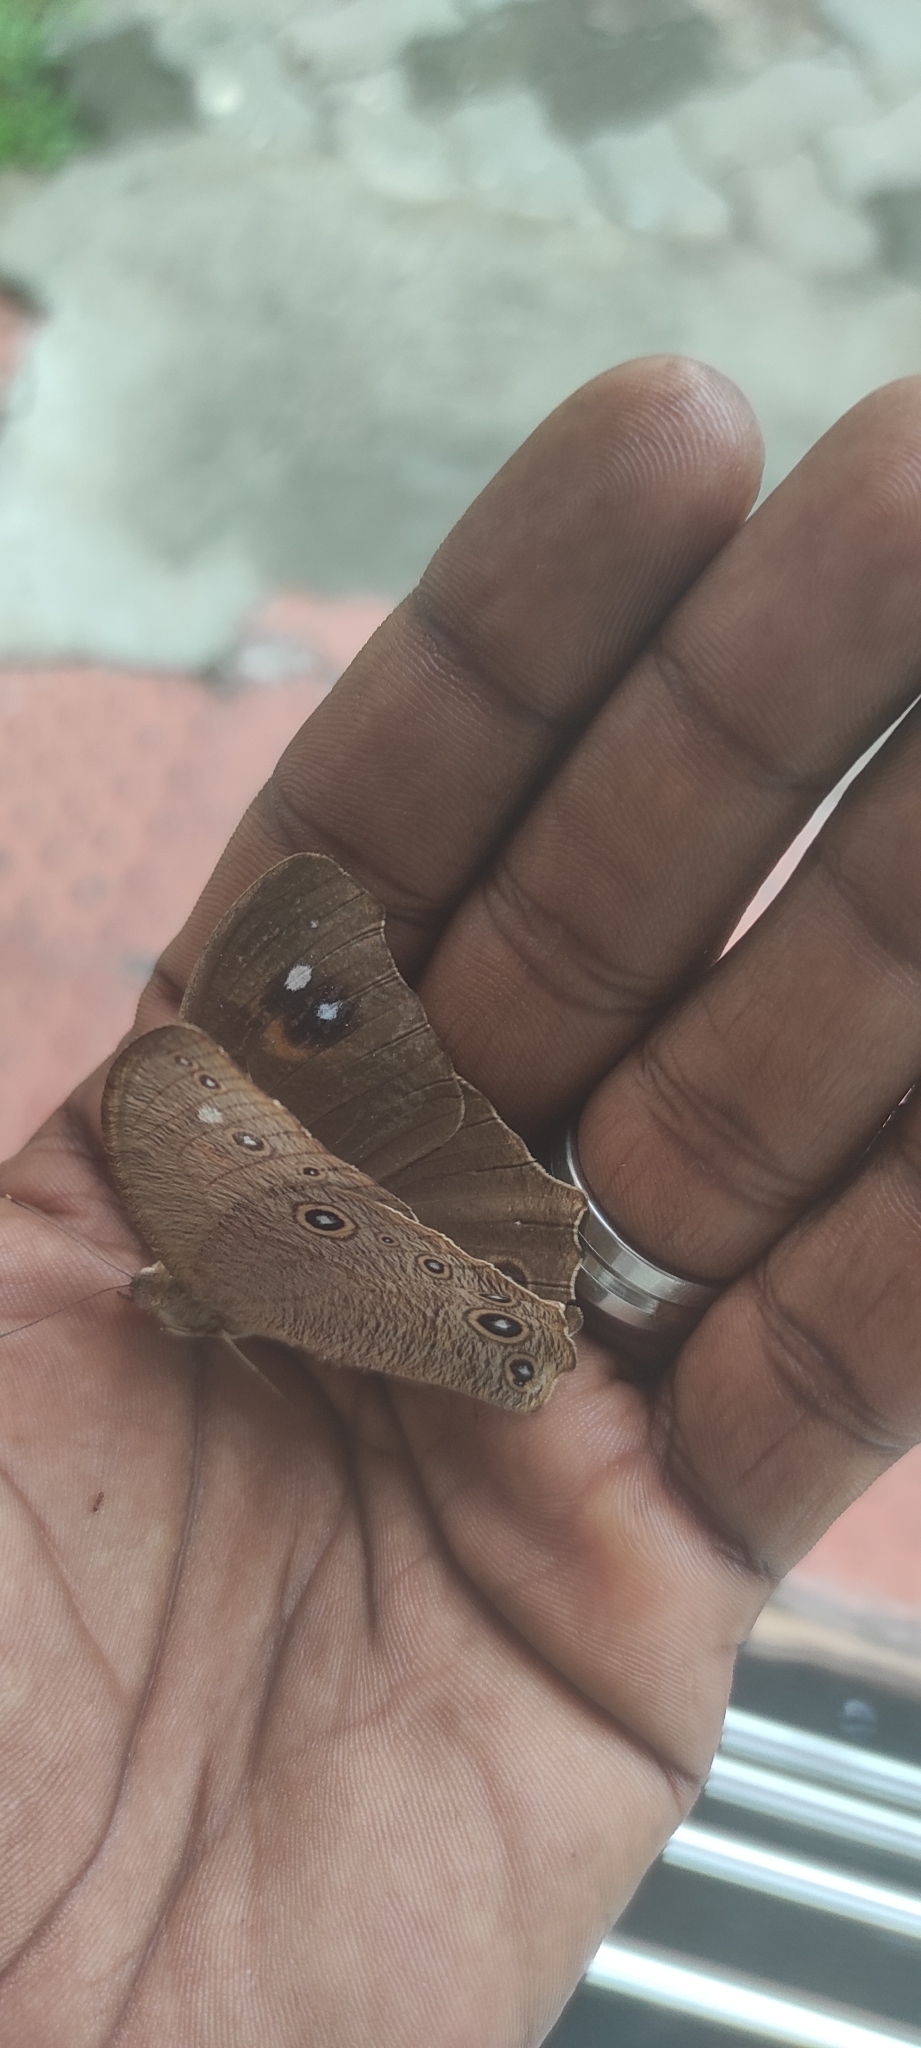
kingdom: Animalia
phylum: Arthropoda
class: Insecta
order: Lepidoptera
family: Nymphalidae
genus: Melanitis
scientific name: Melanitis leda
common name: Twilight brown
